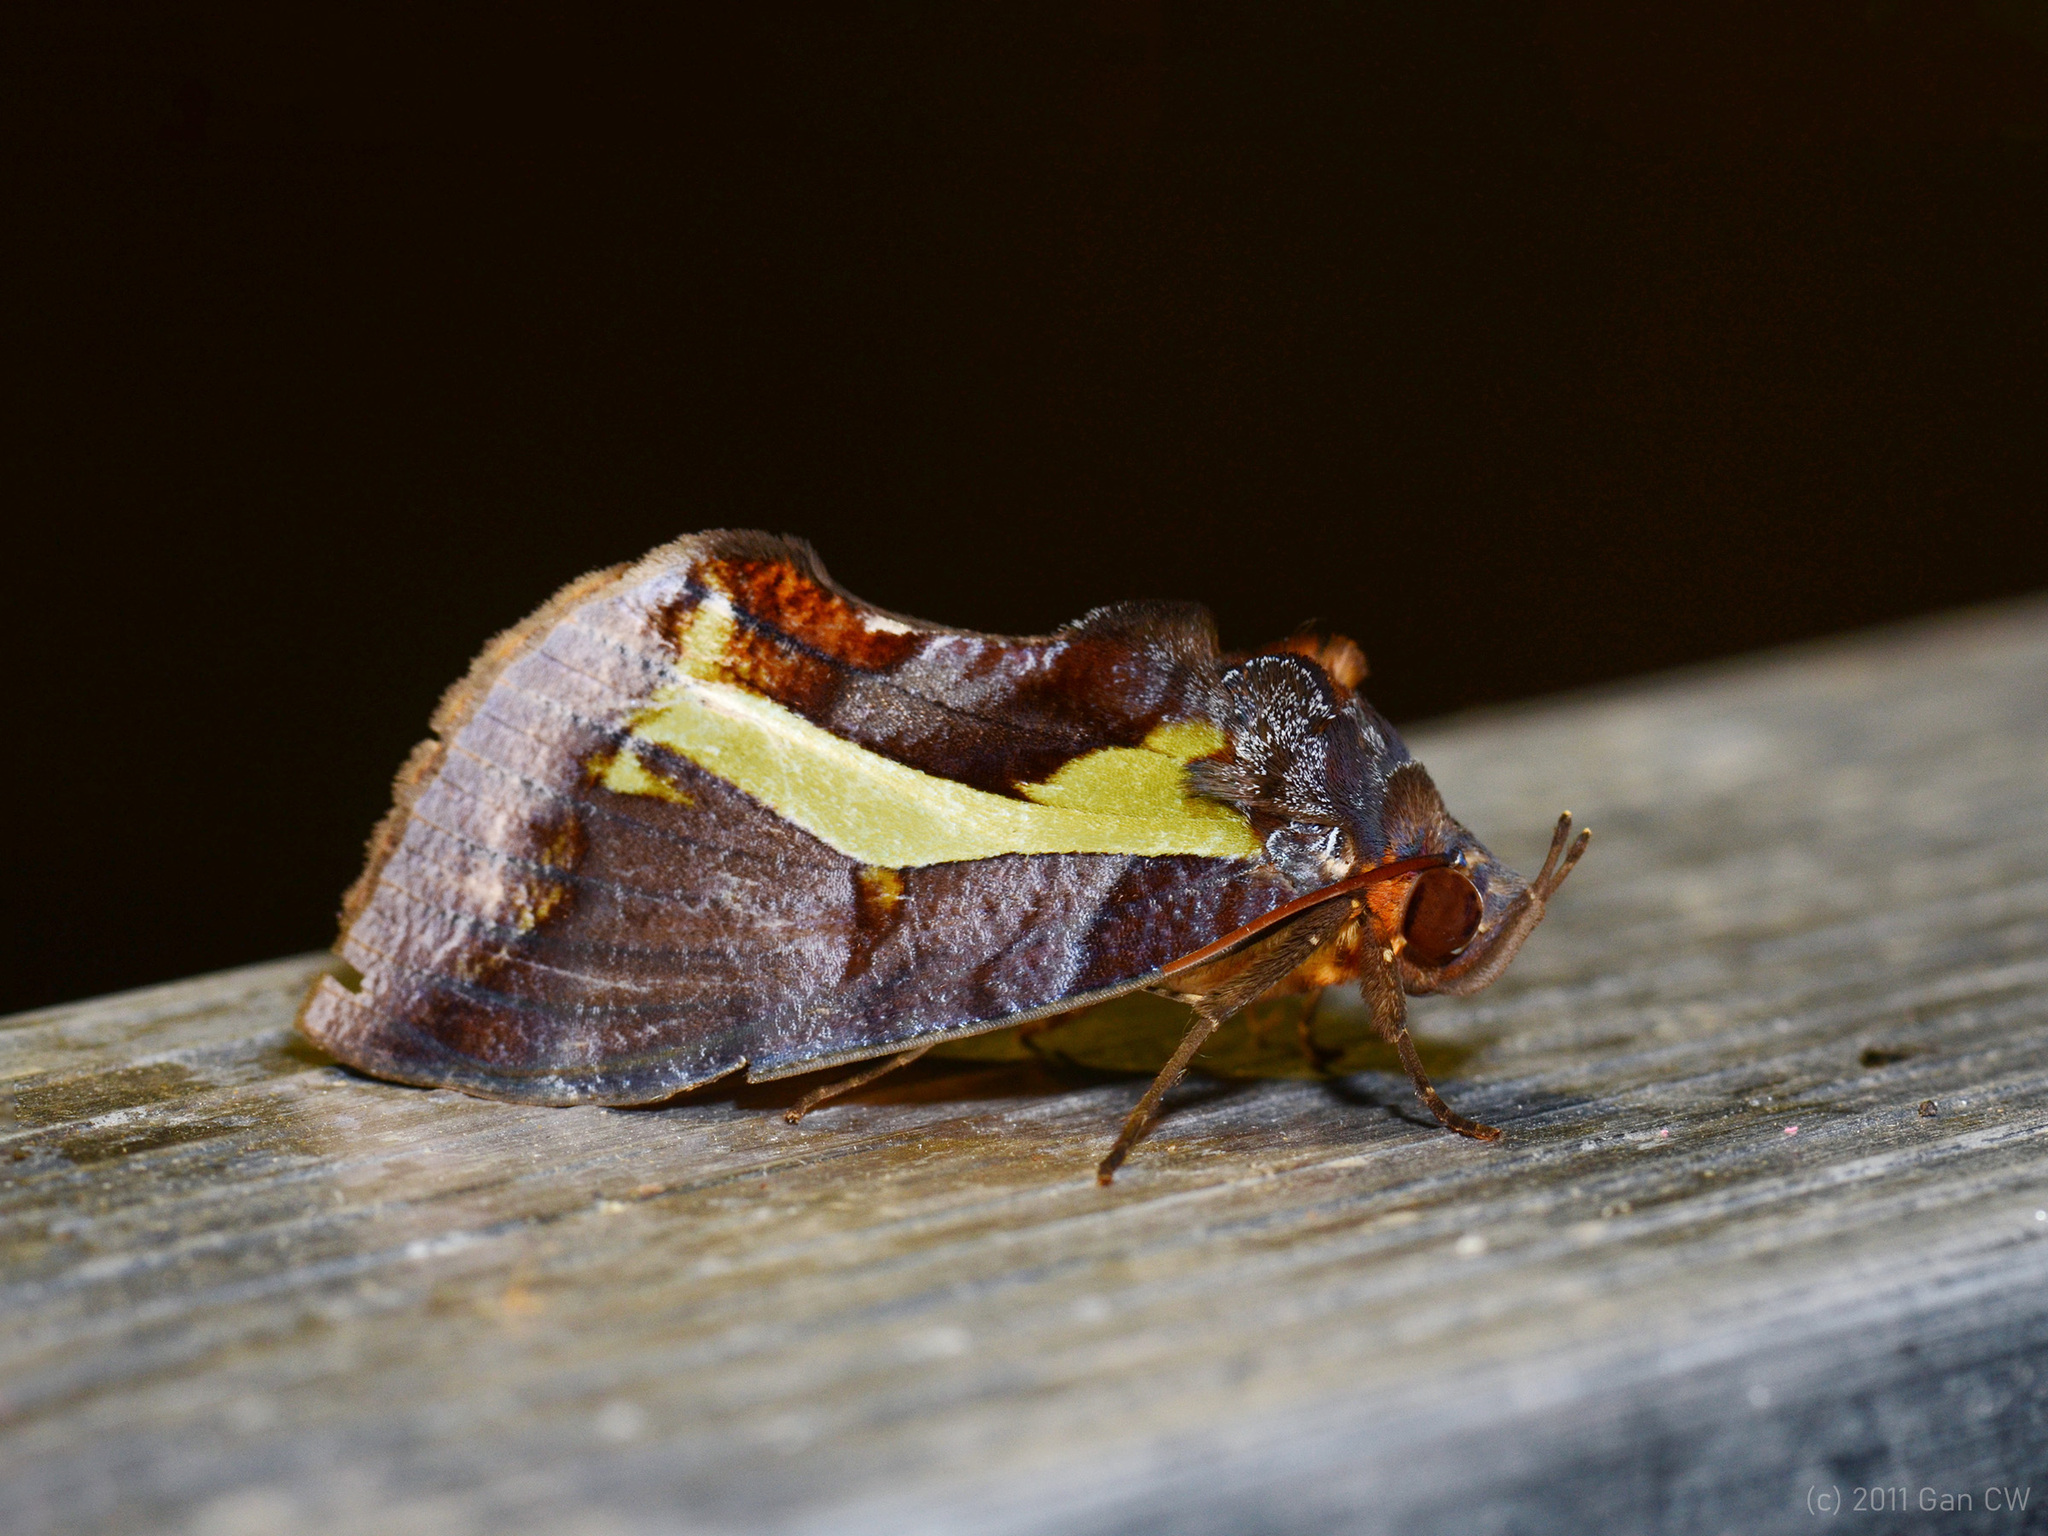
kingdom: Animalia
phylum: Arthropoda
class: Insecta
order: Lepidoptera
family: Erebidae
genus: Eudocima
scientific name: Eudocima homaena
